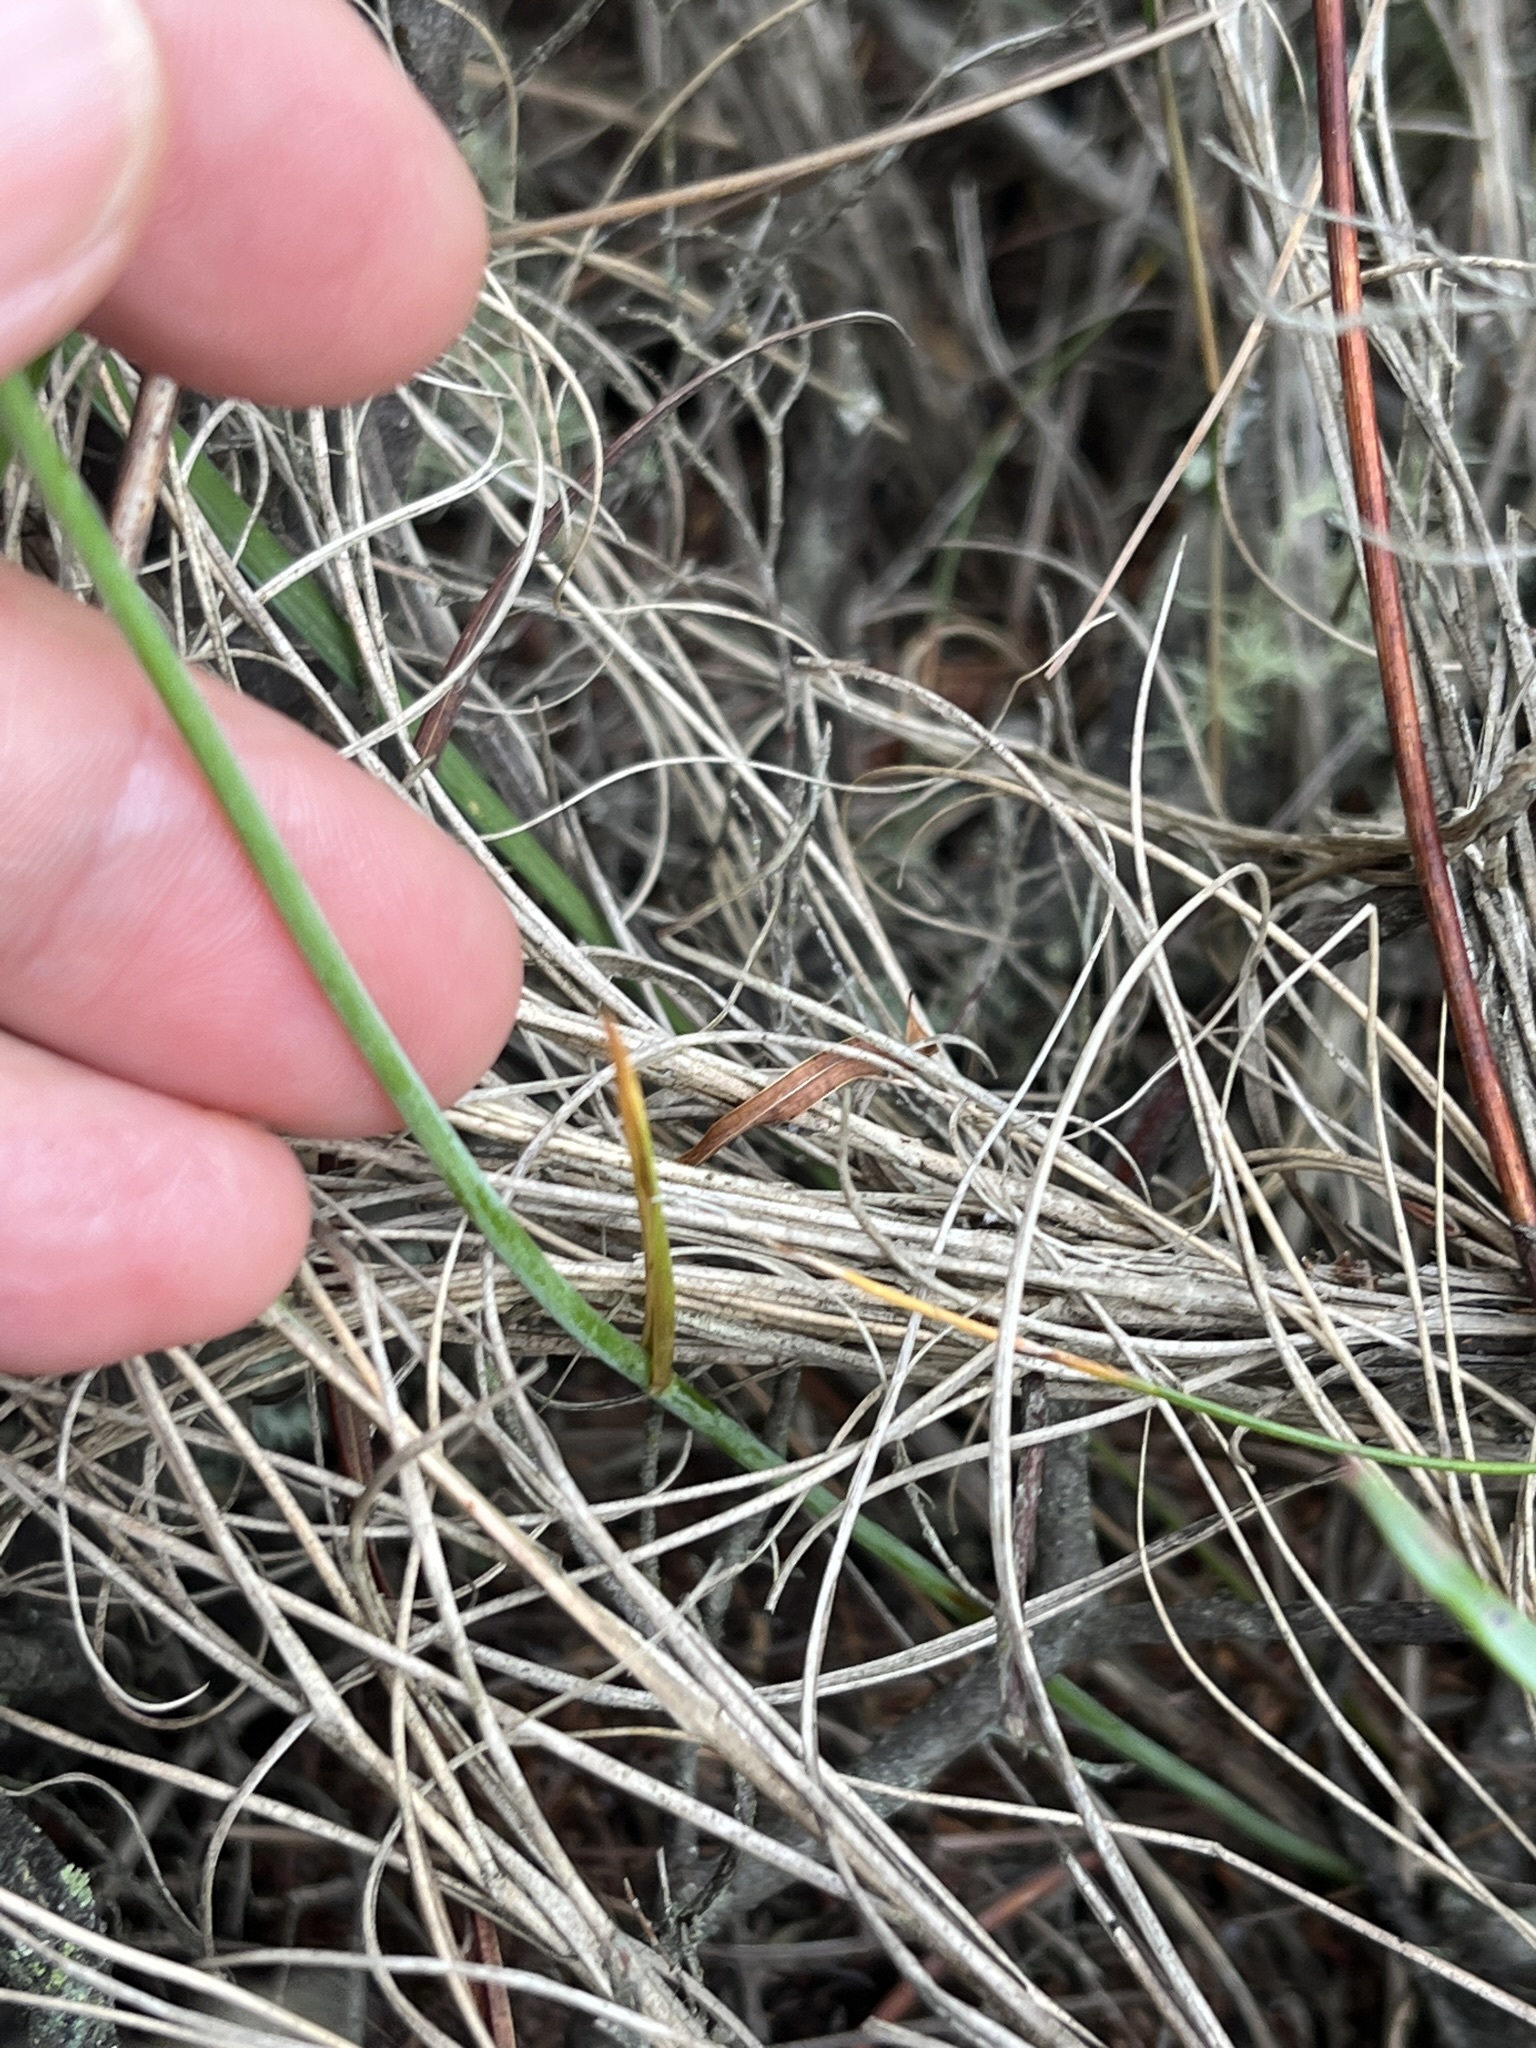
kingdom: Plantae
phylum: Tracheophyta
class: Liliopsida
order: Asparagales
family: Iridaceae
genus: Tritoniopsis
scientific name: Tritoniopsis unguicularis
